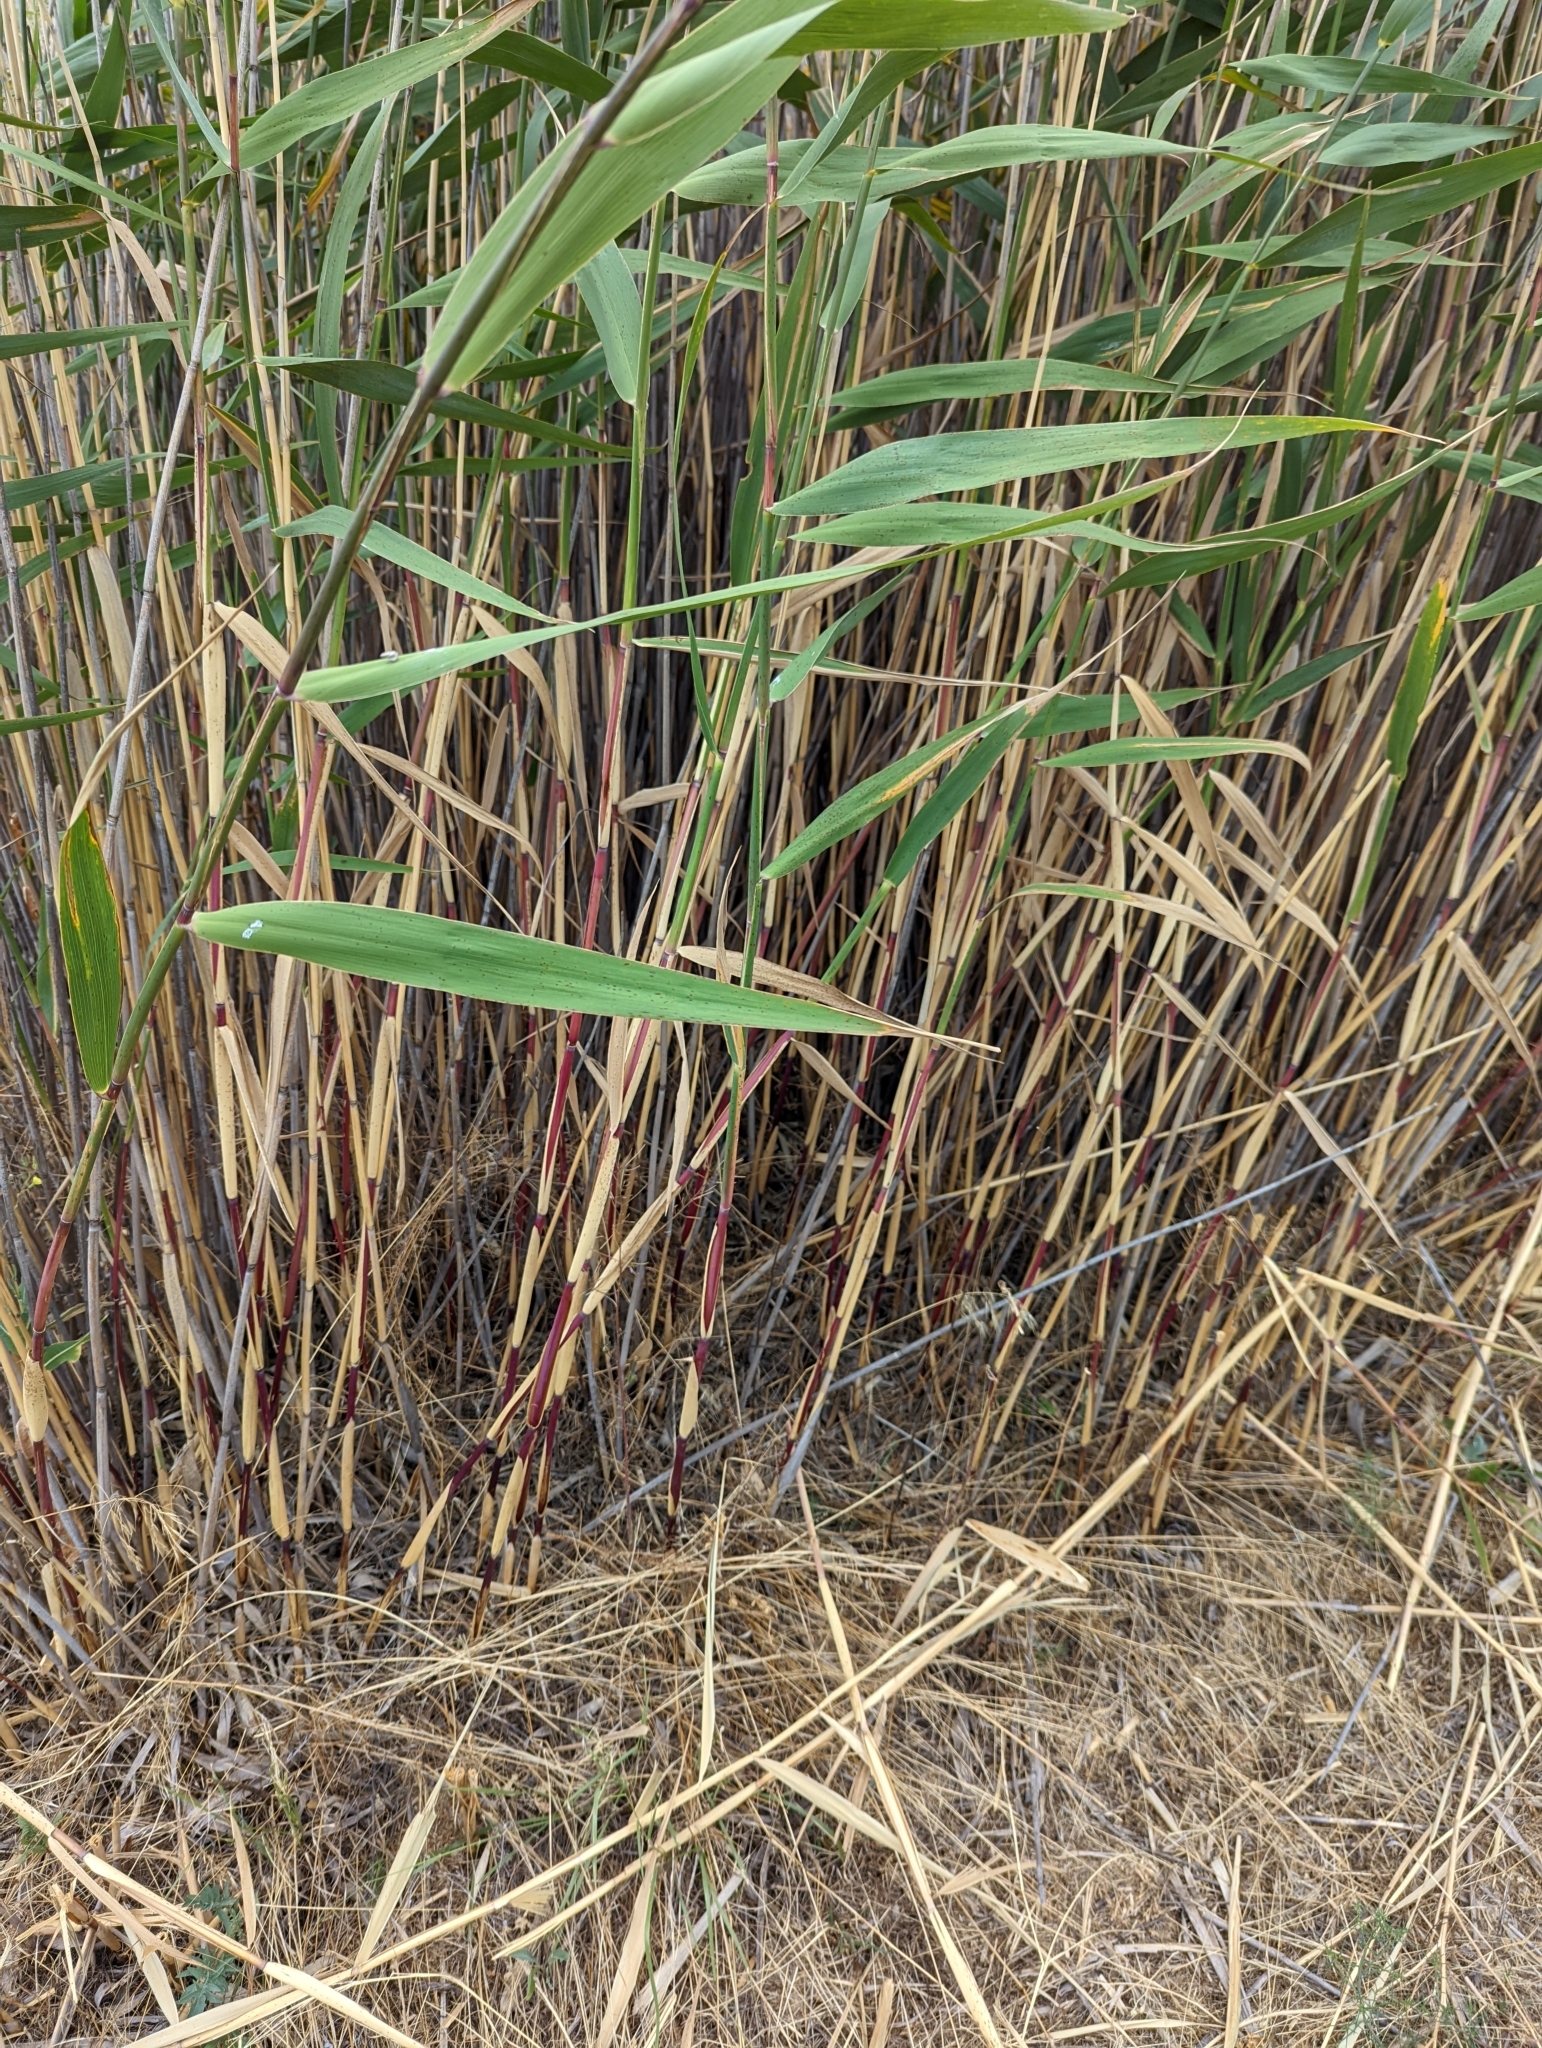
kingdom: Plantae
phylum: Tracheophyta
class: Liliopsida
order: Poales
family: Poaceae
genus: Phragmites
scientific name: Phragmites australis
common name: Common reed
